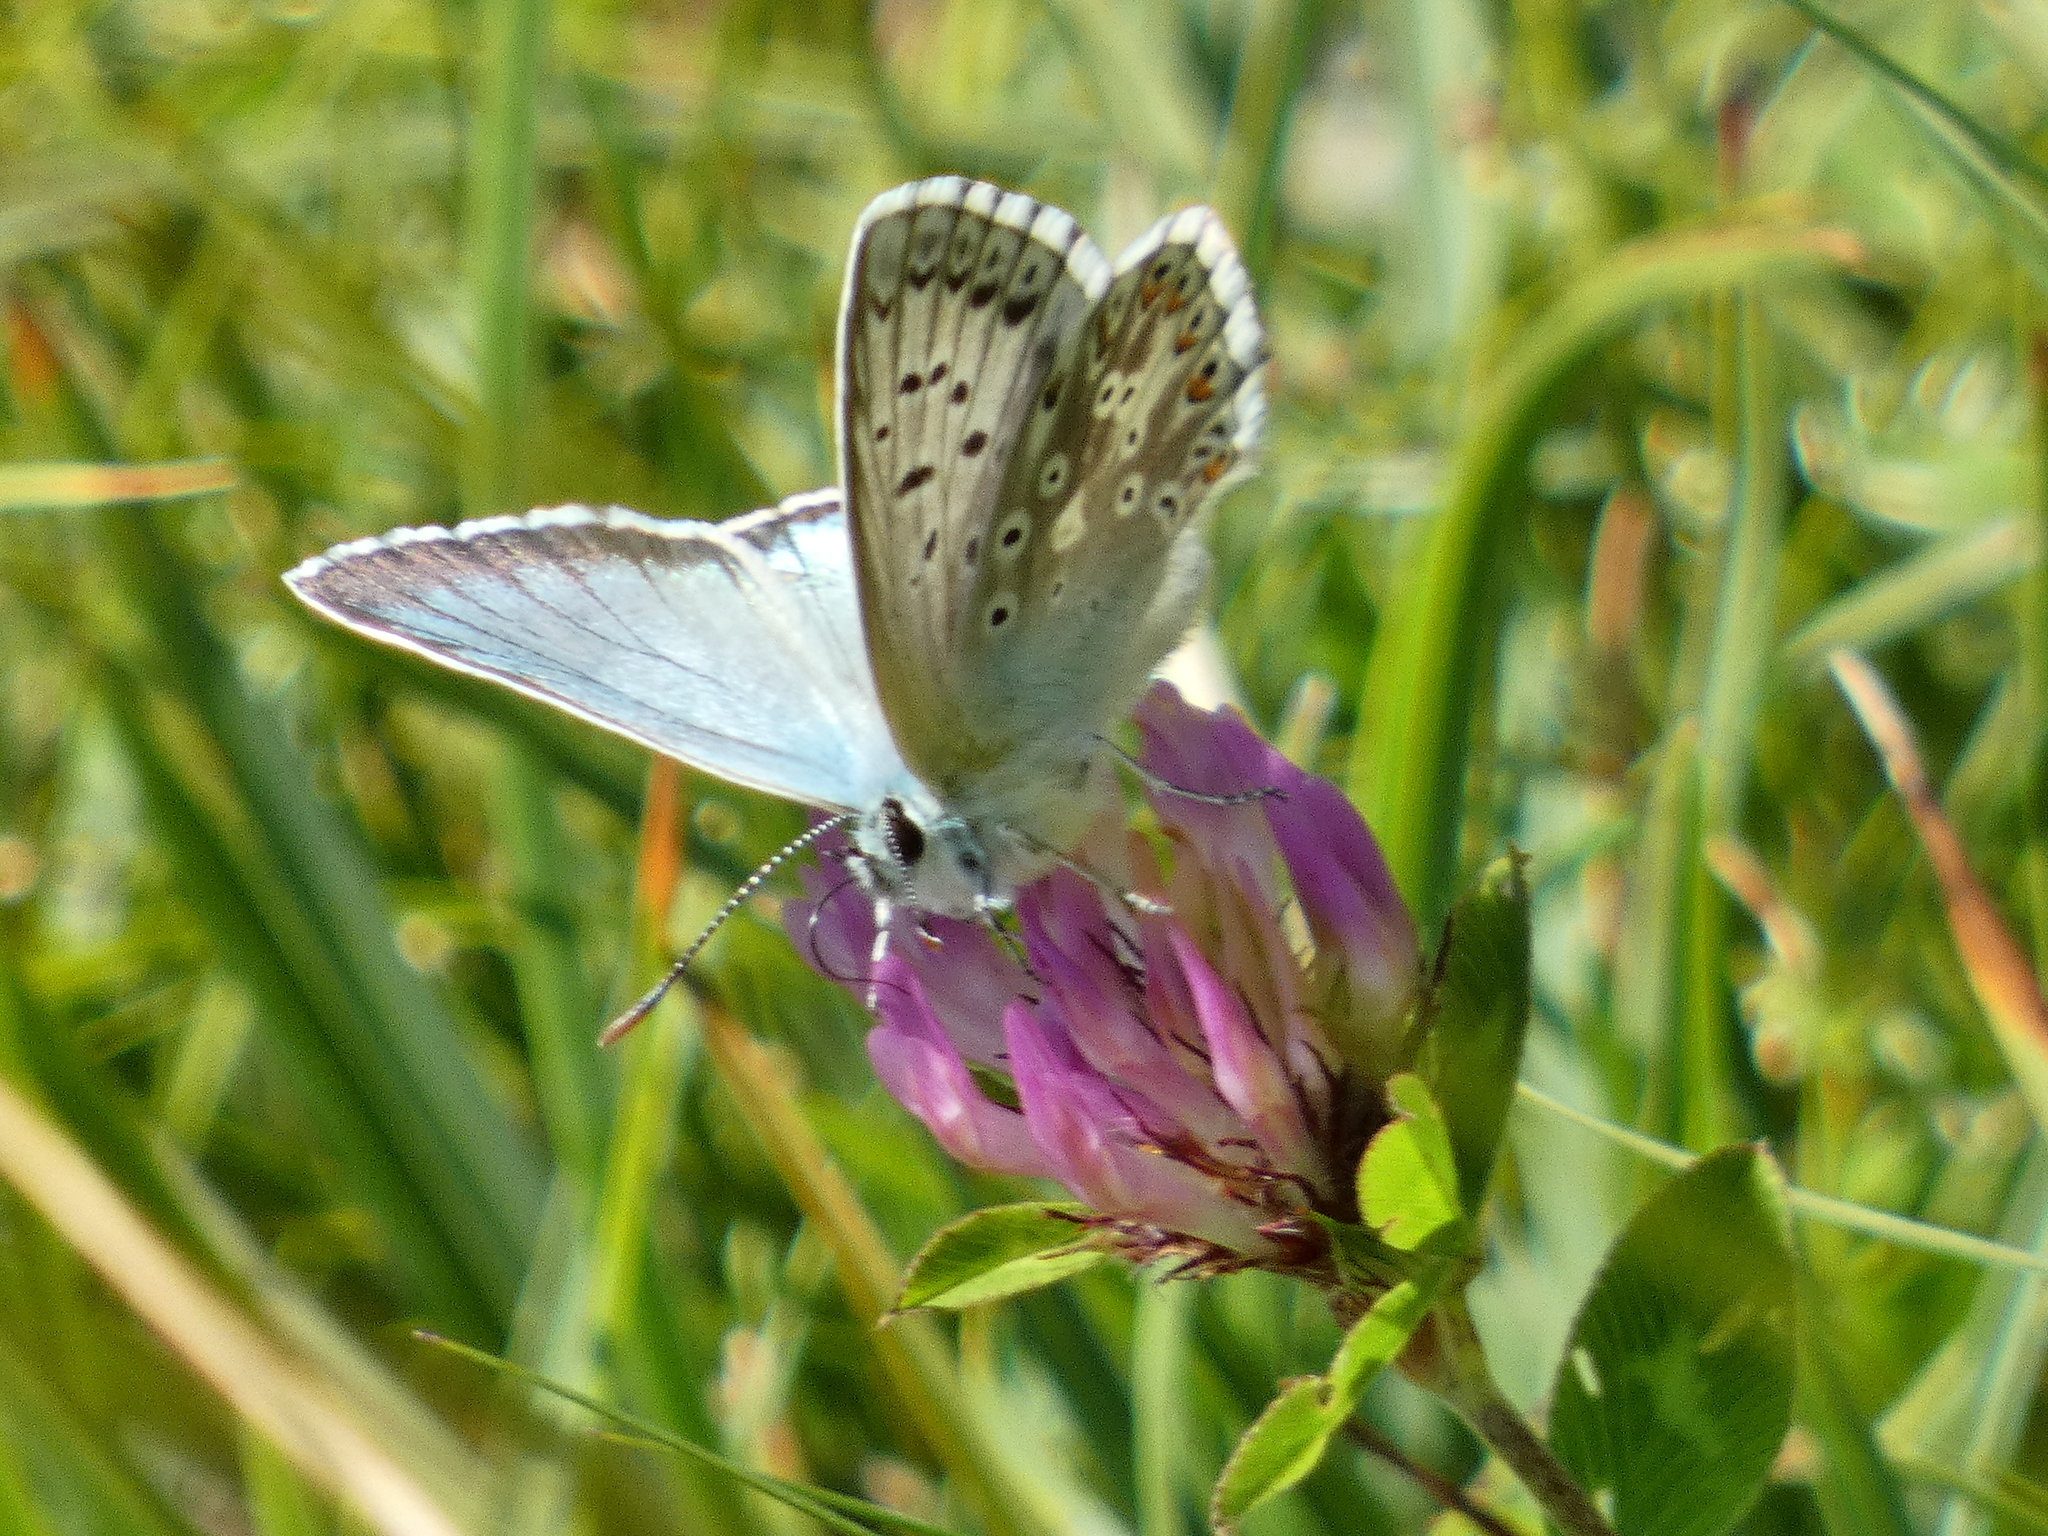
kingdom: Animalia
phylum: Arthropoda
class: Insecta
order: Lepidoptera
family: Lycaenidae
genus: Lysandra
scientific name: Lysandra coridon
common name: Chalkhill blue
